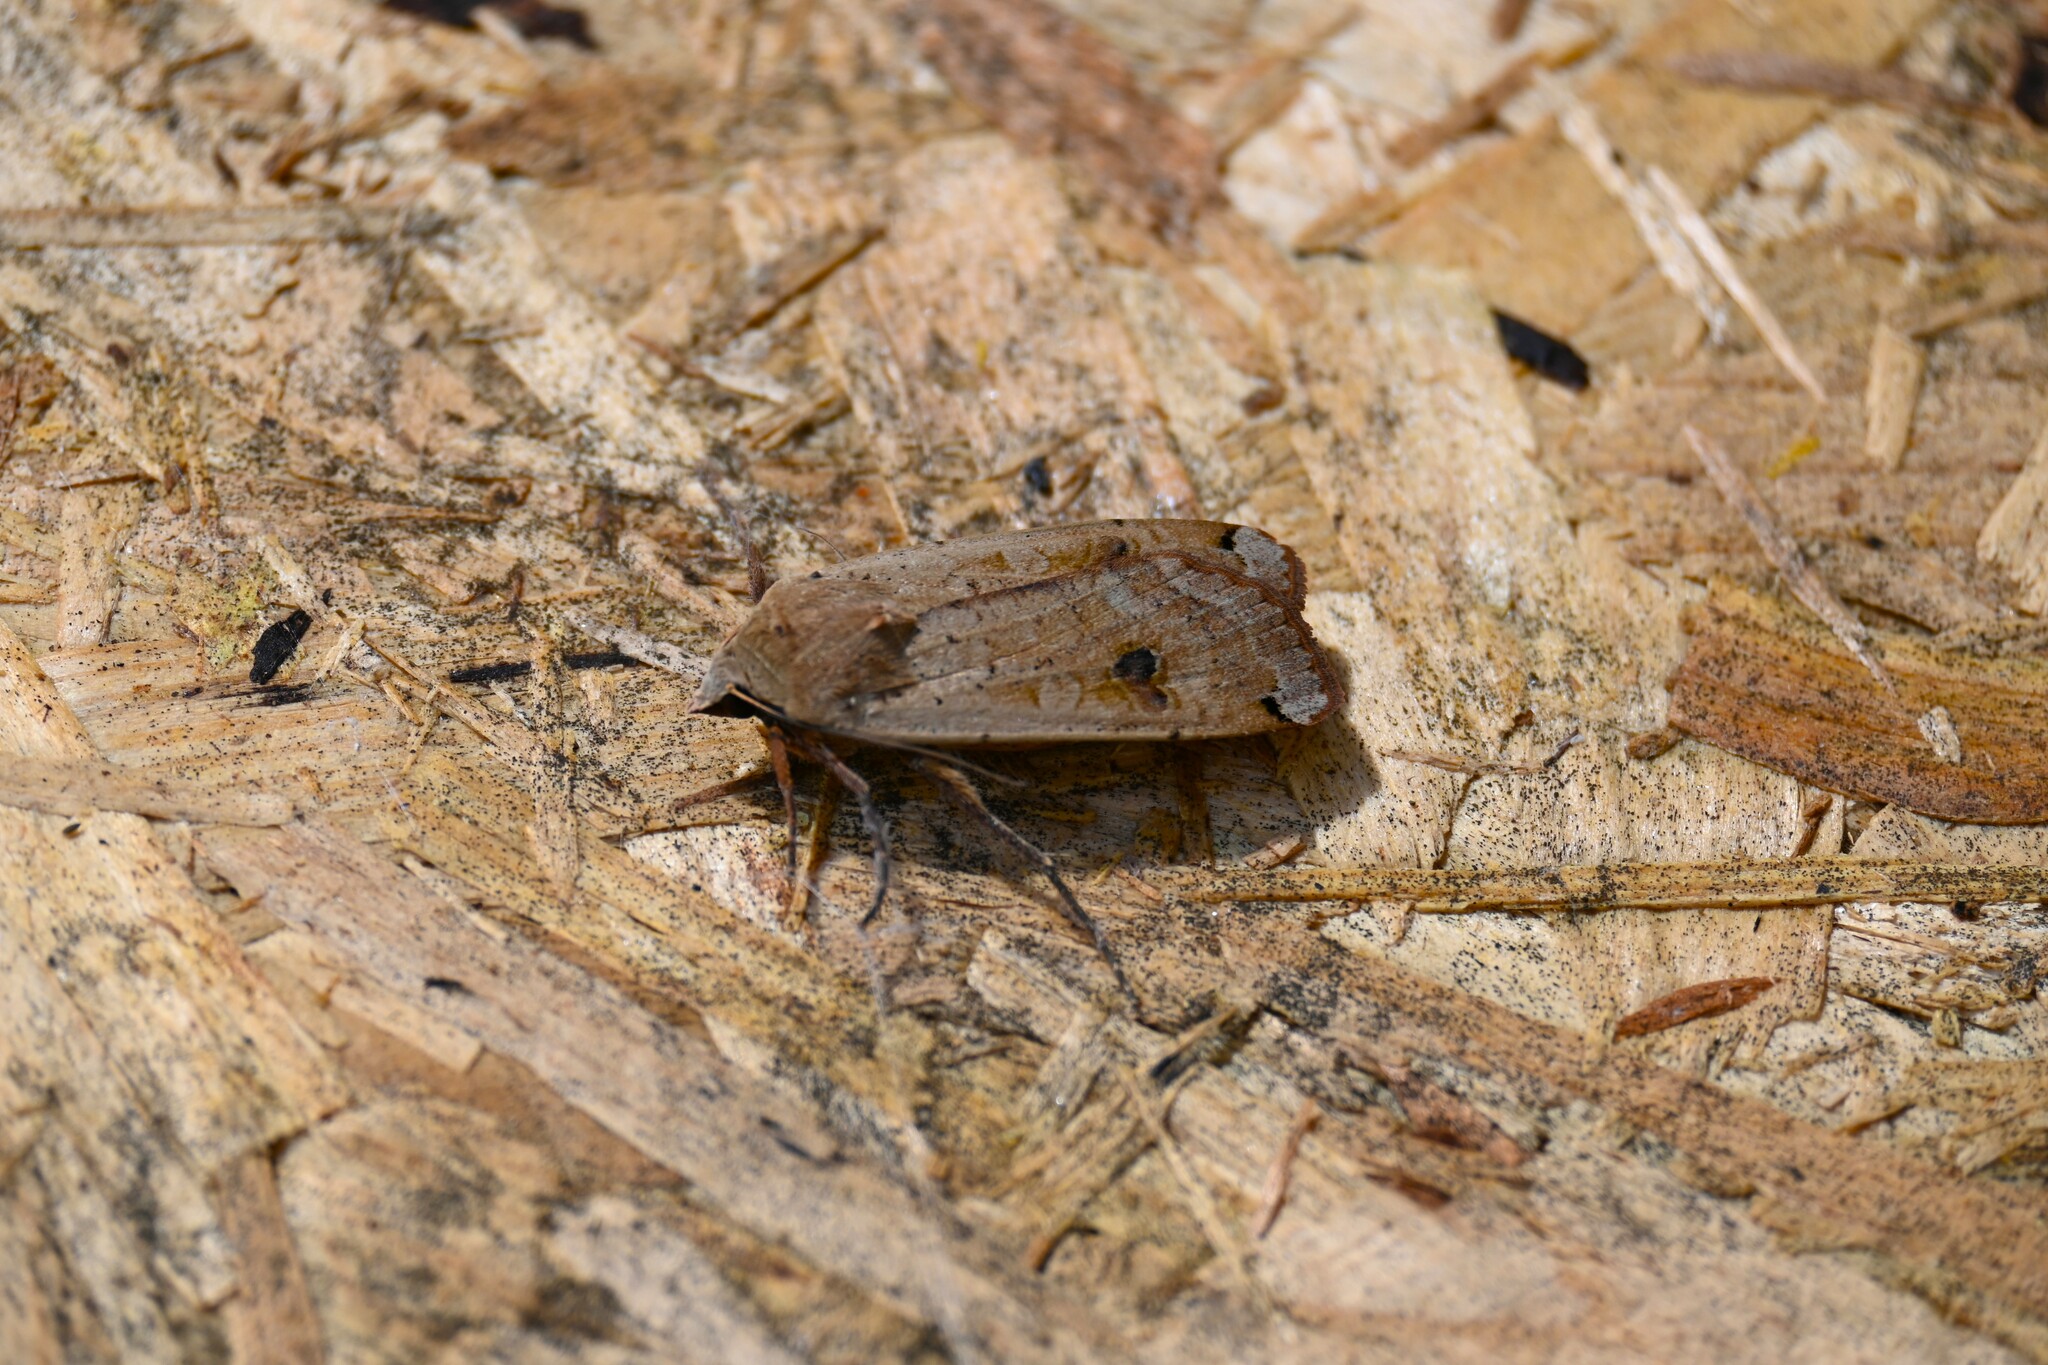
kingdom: Animalia
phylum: Arthropoda
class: Insecta
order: Lepidoptera
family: Noctuidae
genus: Noctua
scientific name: Noctua pronuba
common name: Large yellow underwing
